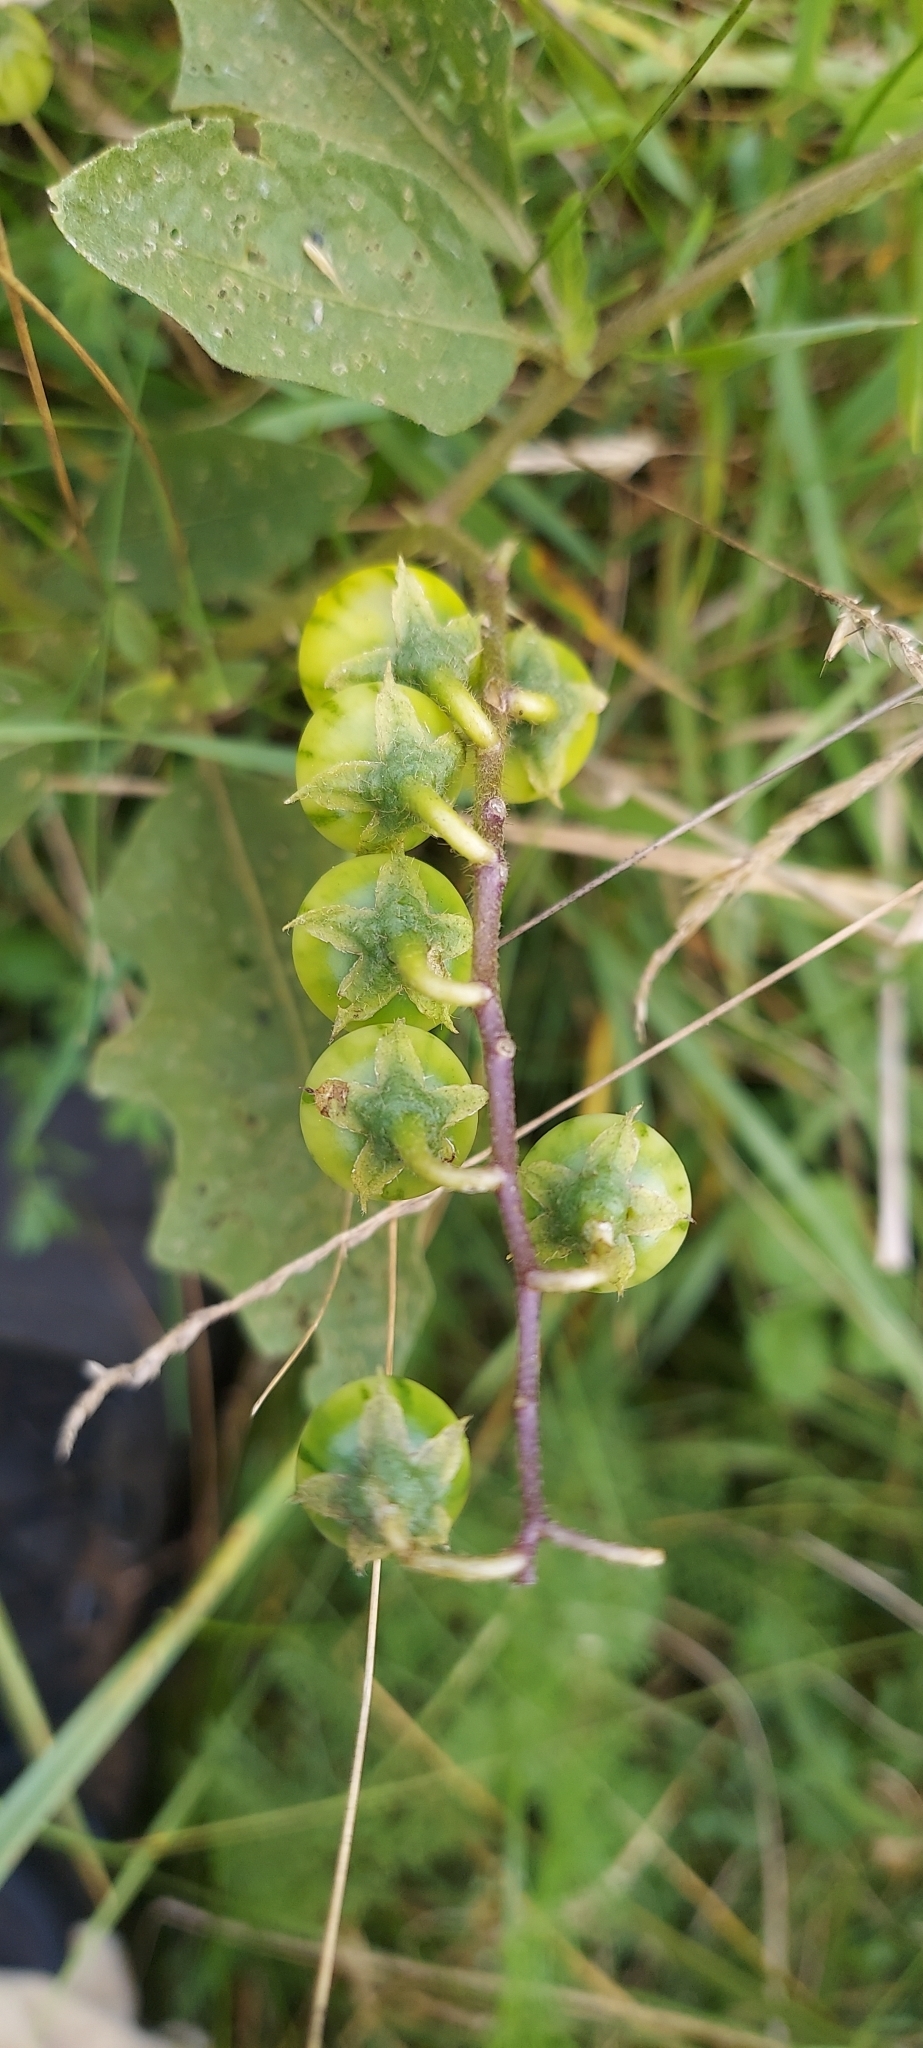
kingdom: Plantae
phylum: Tracheophyta
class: Magnoliopsida
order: Solanales
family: Solanaceae
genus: Solanum
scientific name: Solanum carolinense
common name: Horse-nettle
